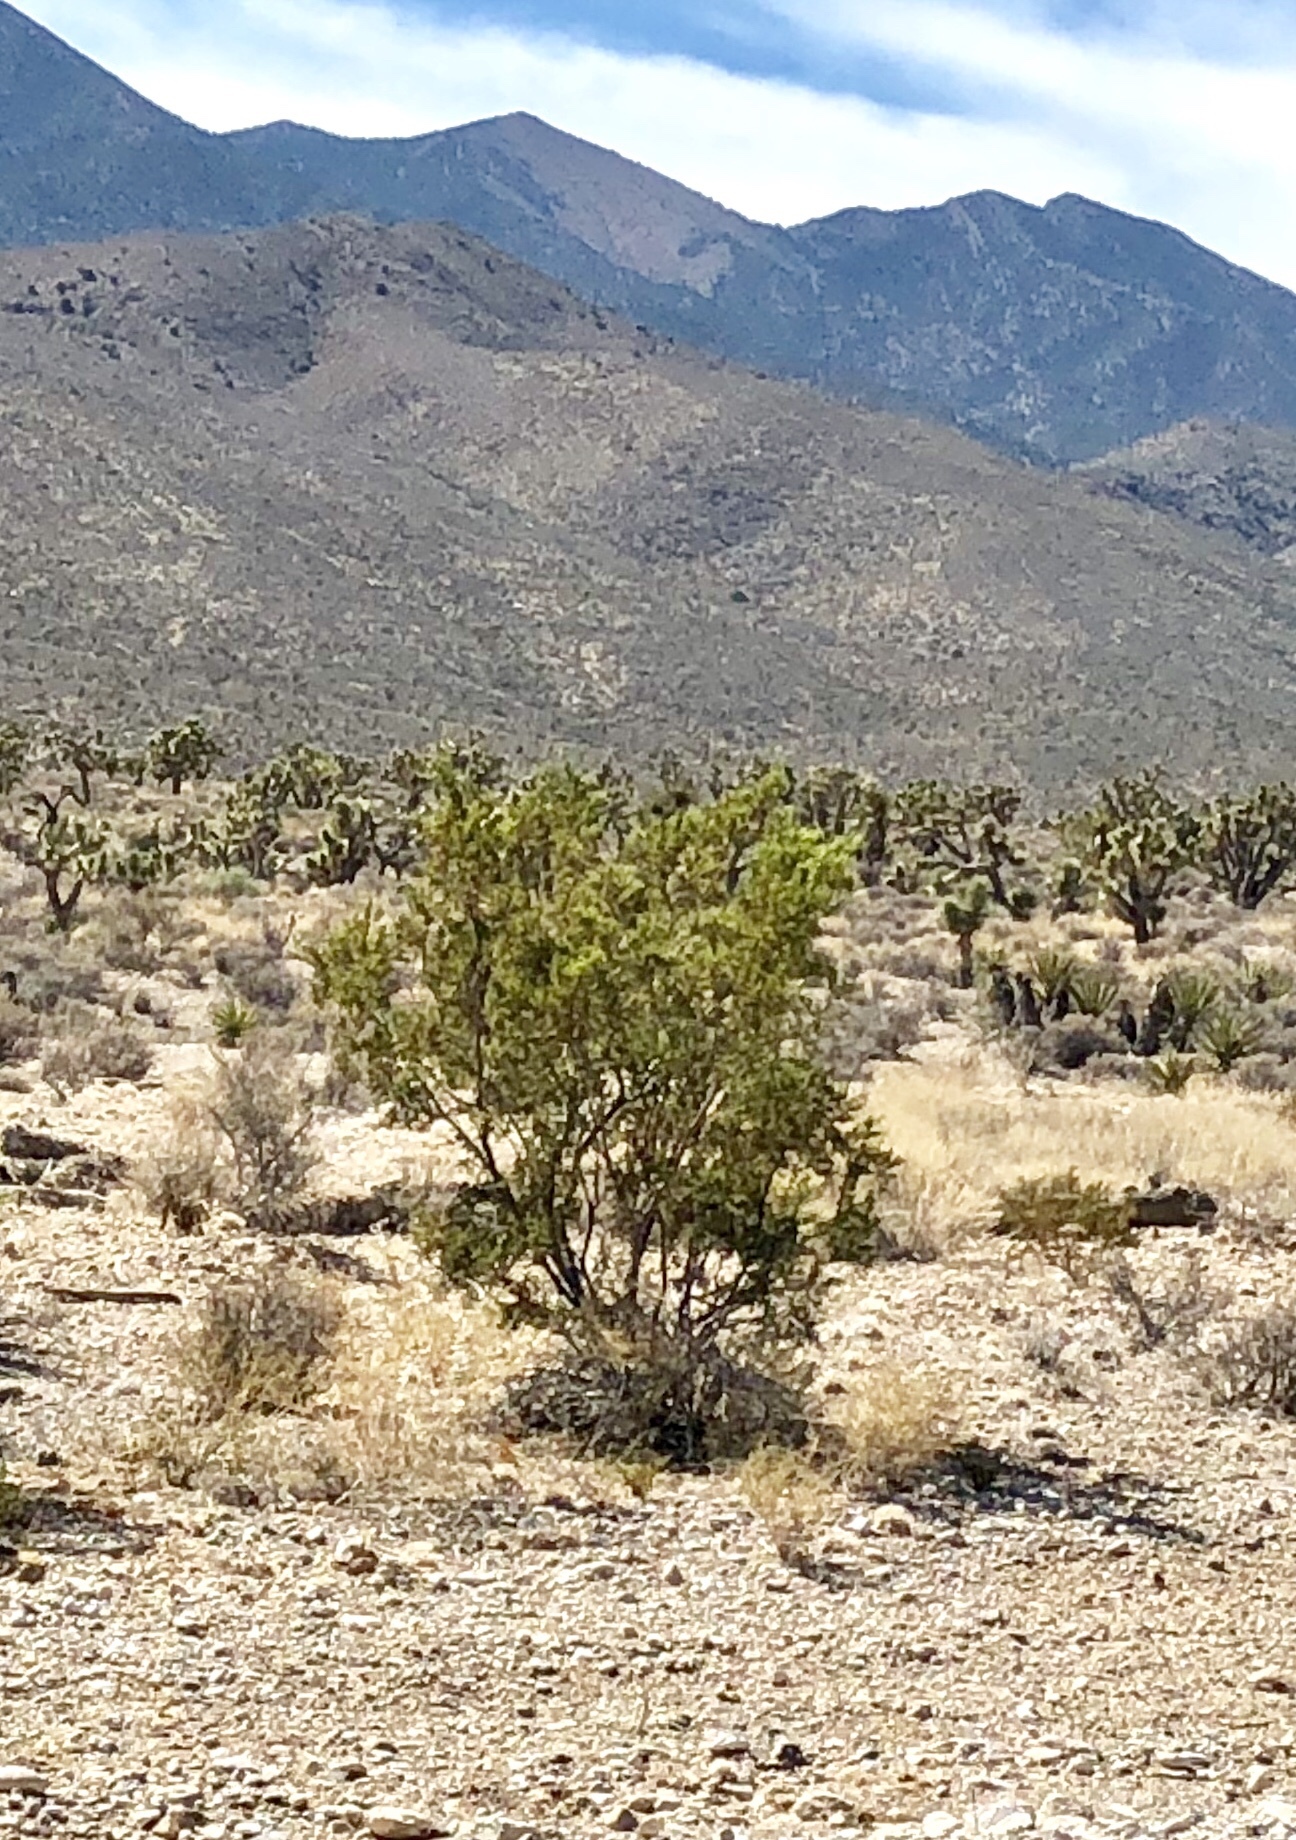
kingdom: Plantae
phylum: Tracheophyta
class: Magnoliopsida
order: Zygophyllales
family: Zygophyllaceae
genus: Larrea
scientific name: Larrea tridentata
